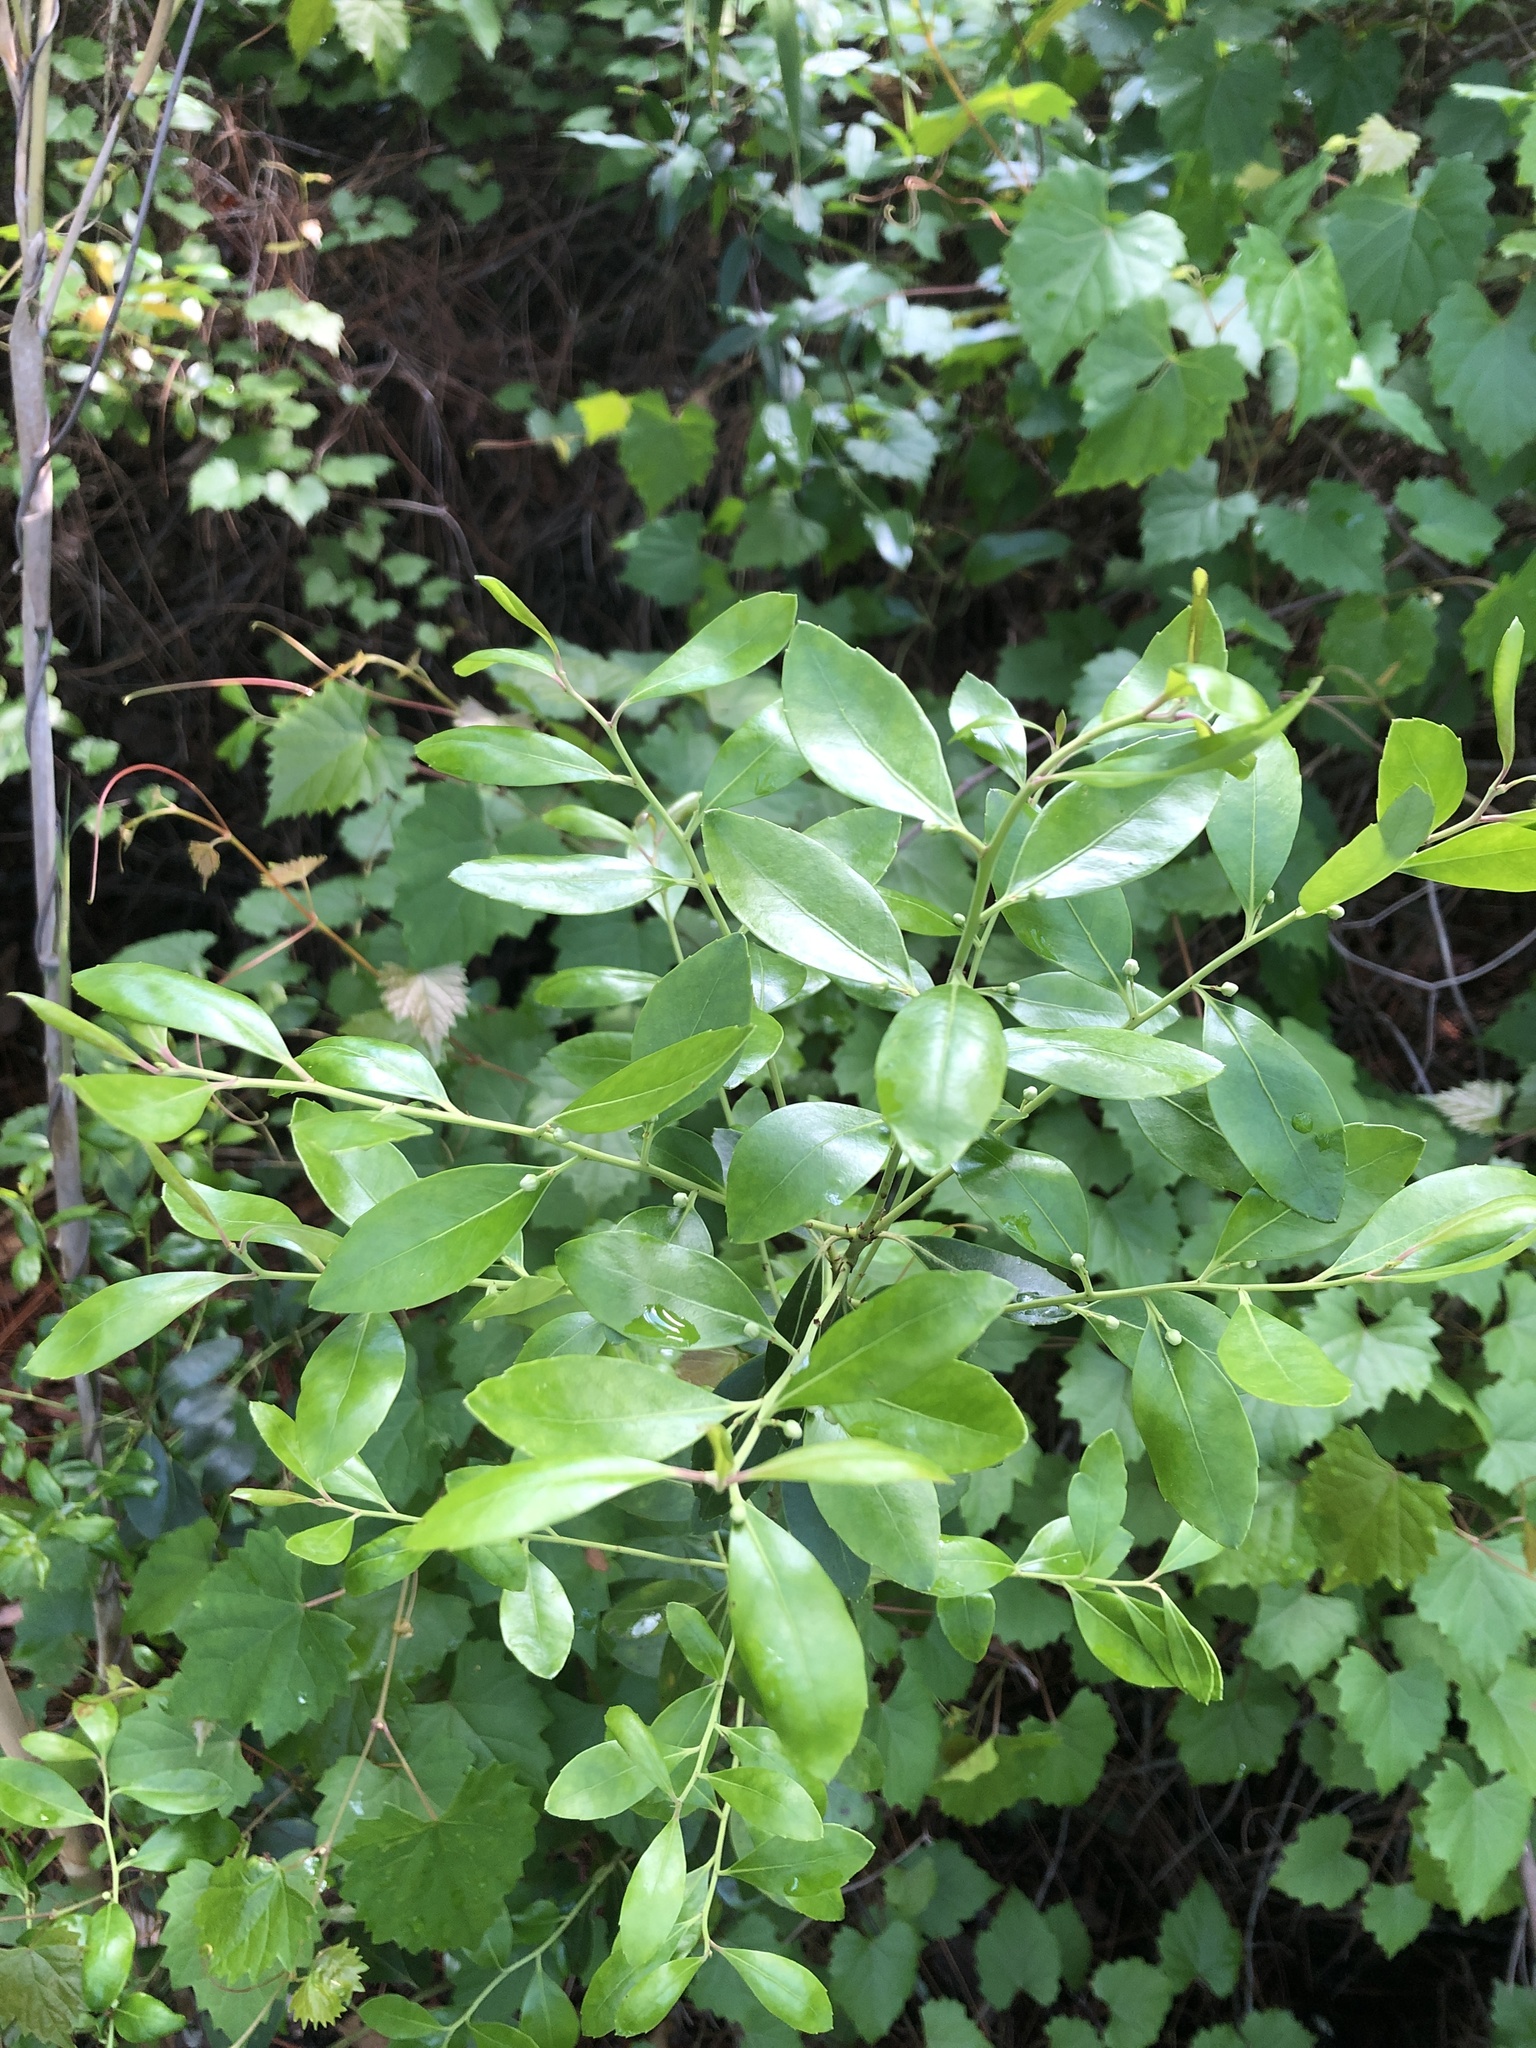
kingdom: Plantae
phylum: Tracheophyta
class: Magnoliopsida
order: Aquifoliales
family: Aquifoliaceae
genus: Ilex
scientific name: Ilex glabra
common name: Bitter gallberry
